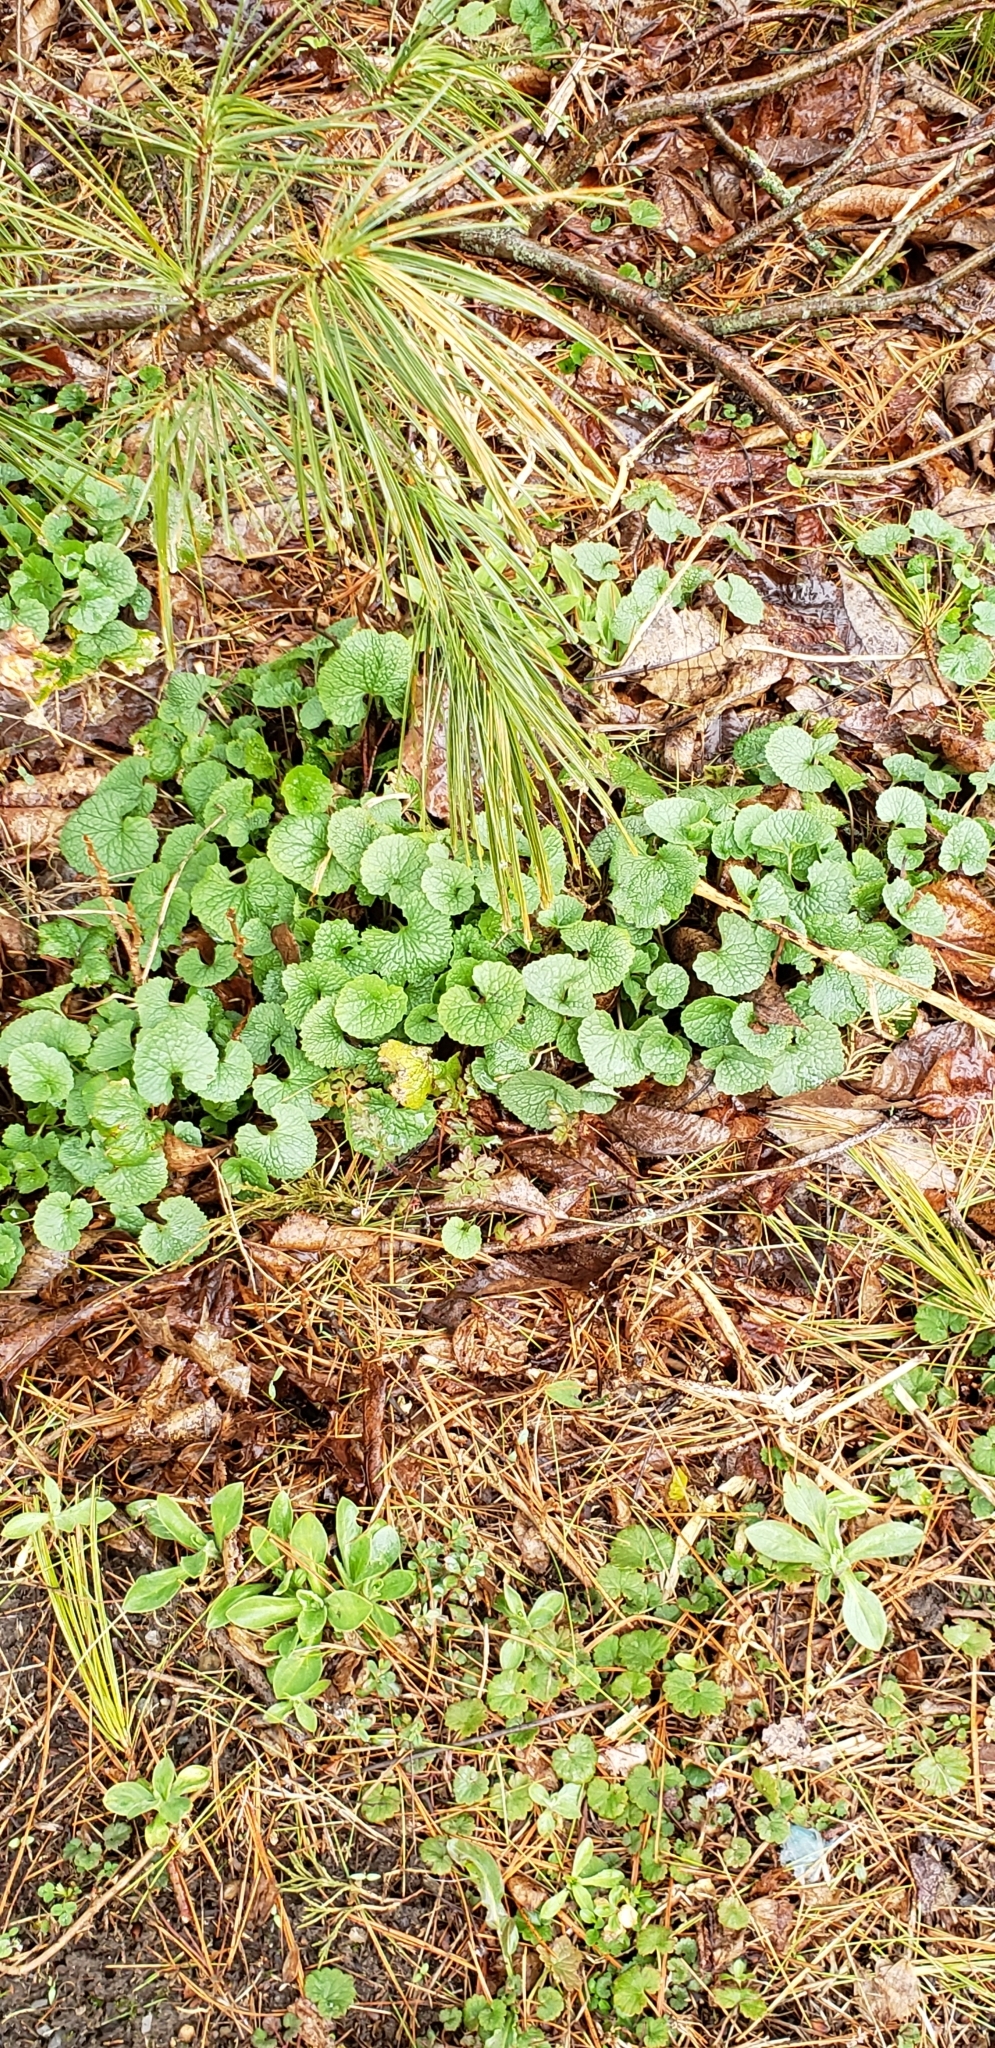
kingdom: Plantae
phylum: Tracheophyta
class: Magnoliopsida
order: Brassicales
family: Brassicaceae
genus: Alliaria
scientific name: Alliaria petiolata
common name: Garlic mustard
